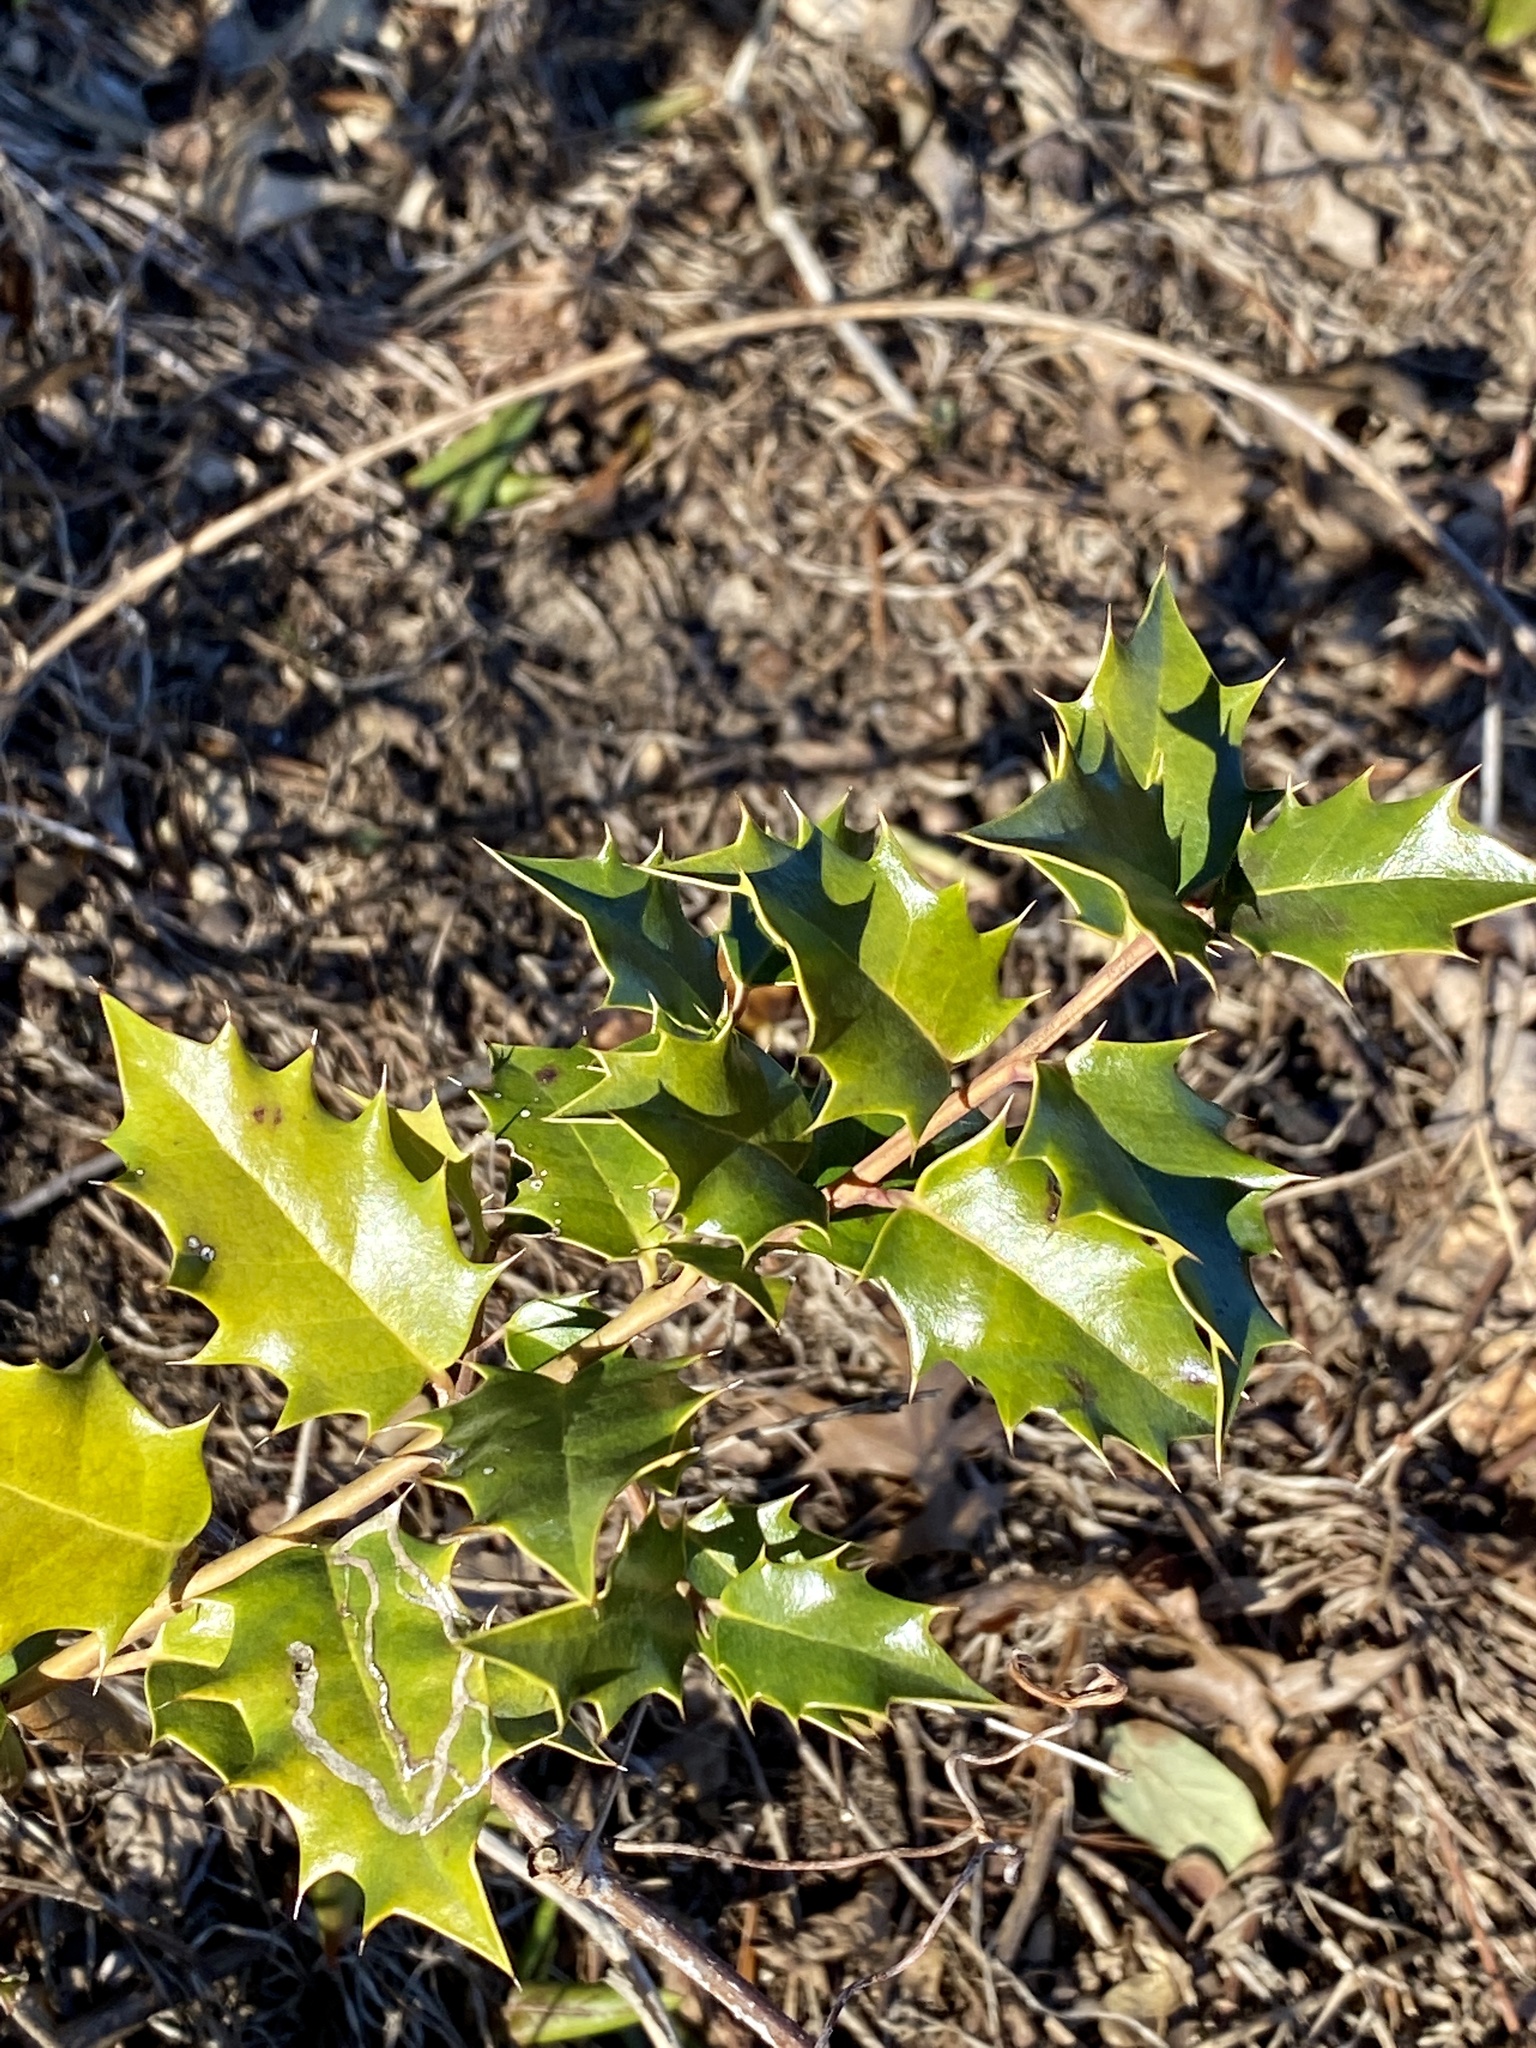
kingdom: Plantae
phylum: Tracheophyta
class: Magnoliopsida
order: Aquifoliales
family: Aquifoliaceae
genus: Ilex
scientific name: Ilex opaca
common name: American holly
